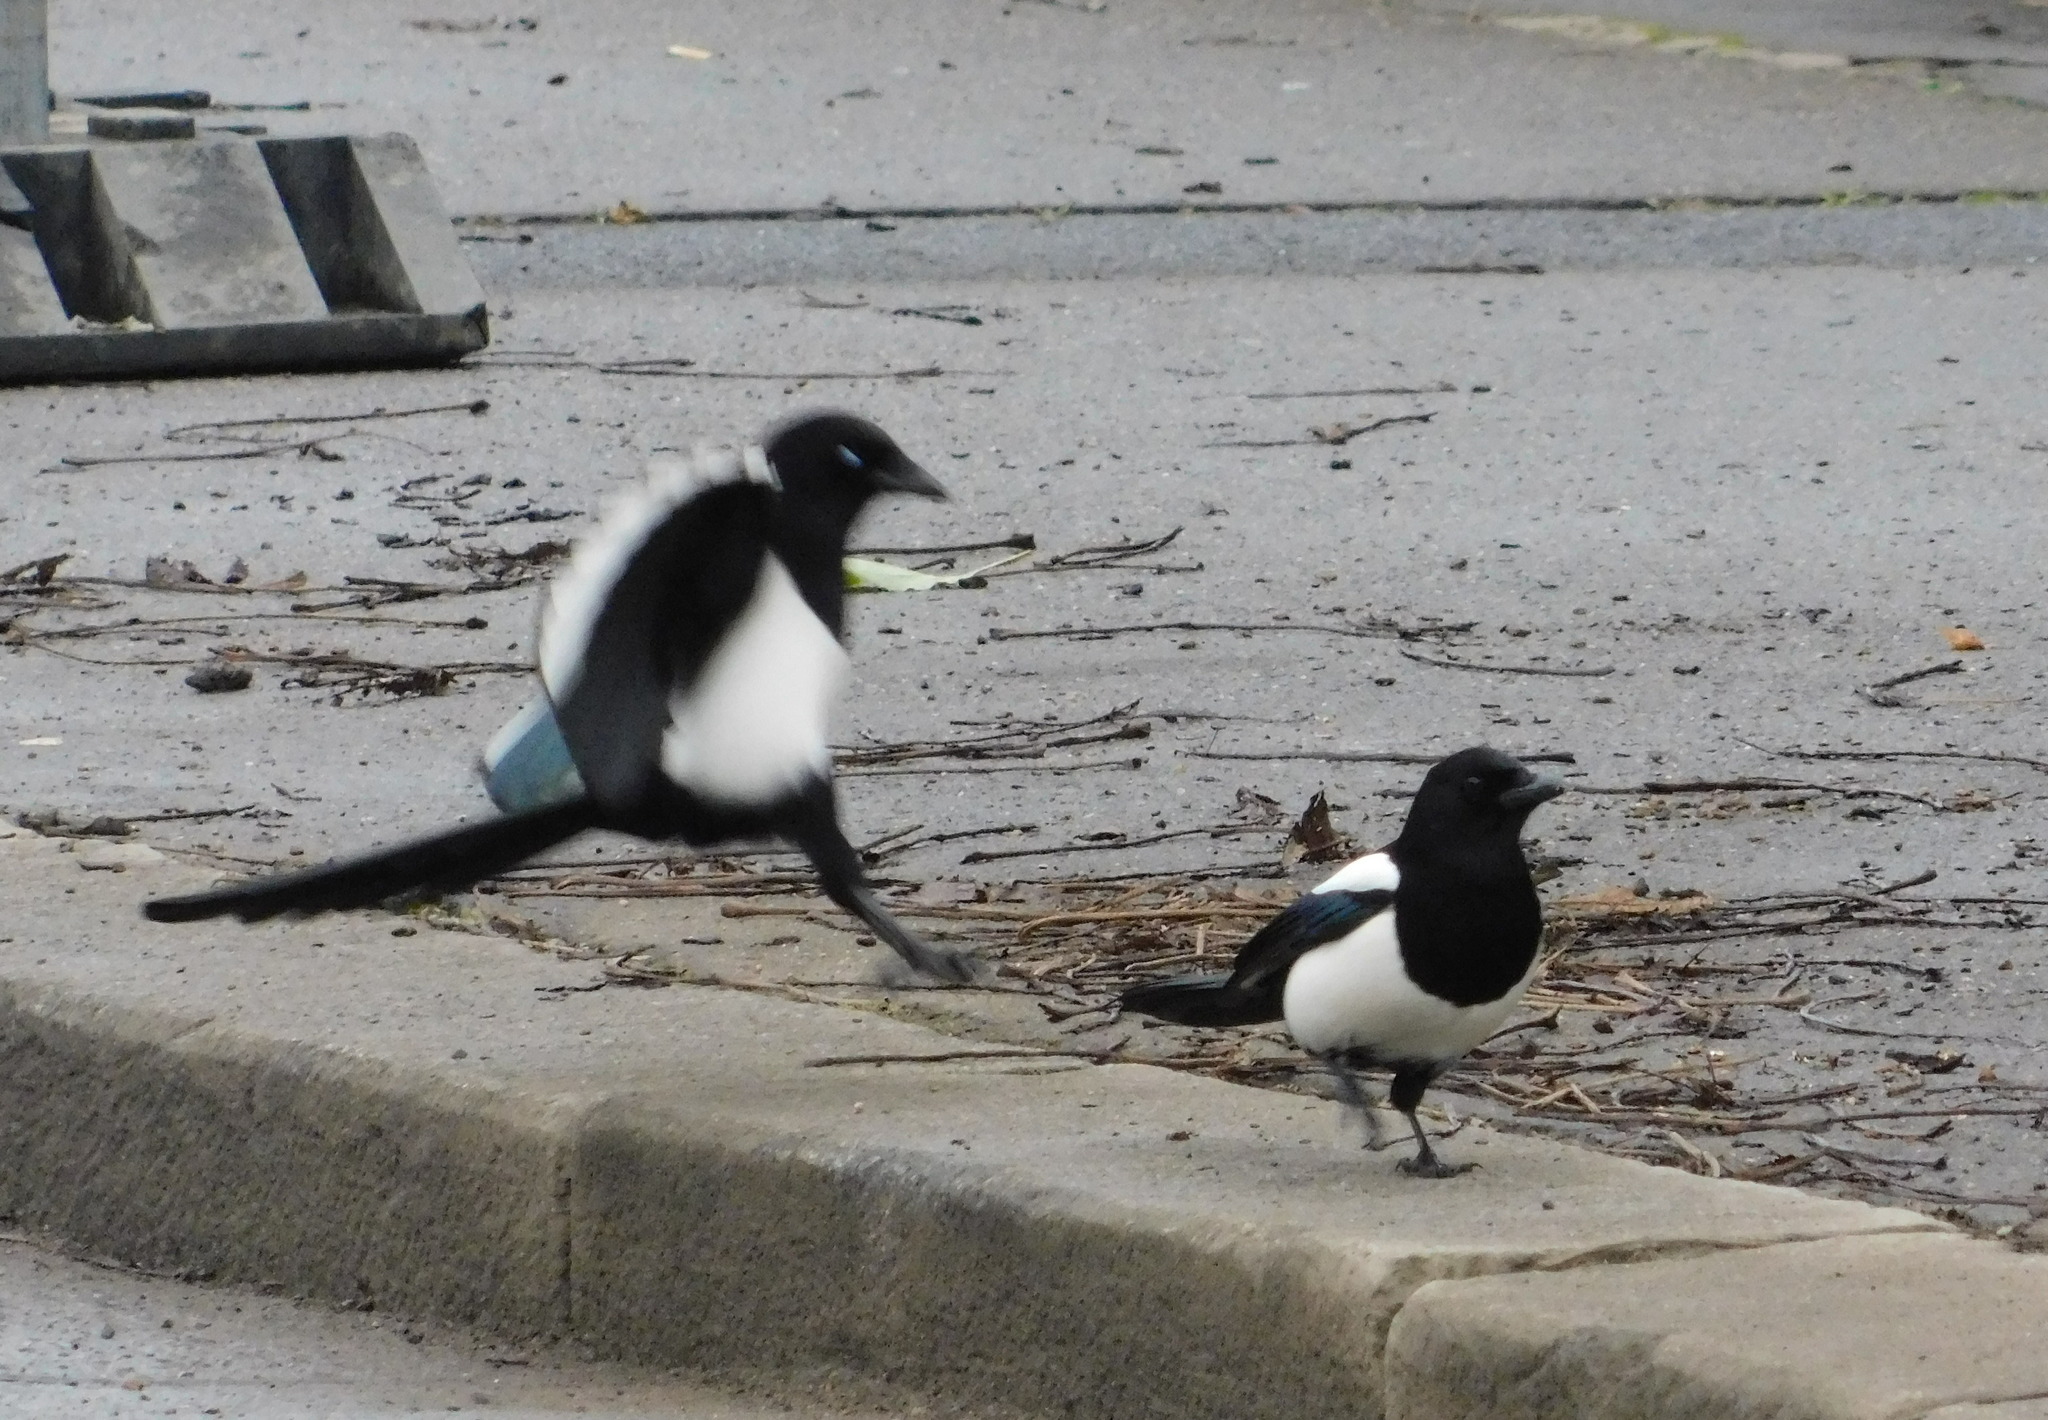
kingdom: Animalia
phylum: Chordata
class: Aves
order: Passeriformes
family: Corvidae
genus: Pica
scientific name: Pica pica
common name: Eurasian magpie
